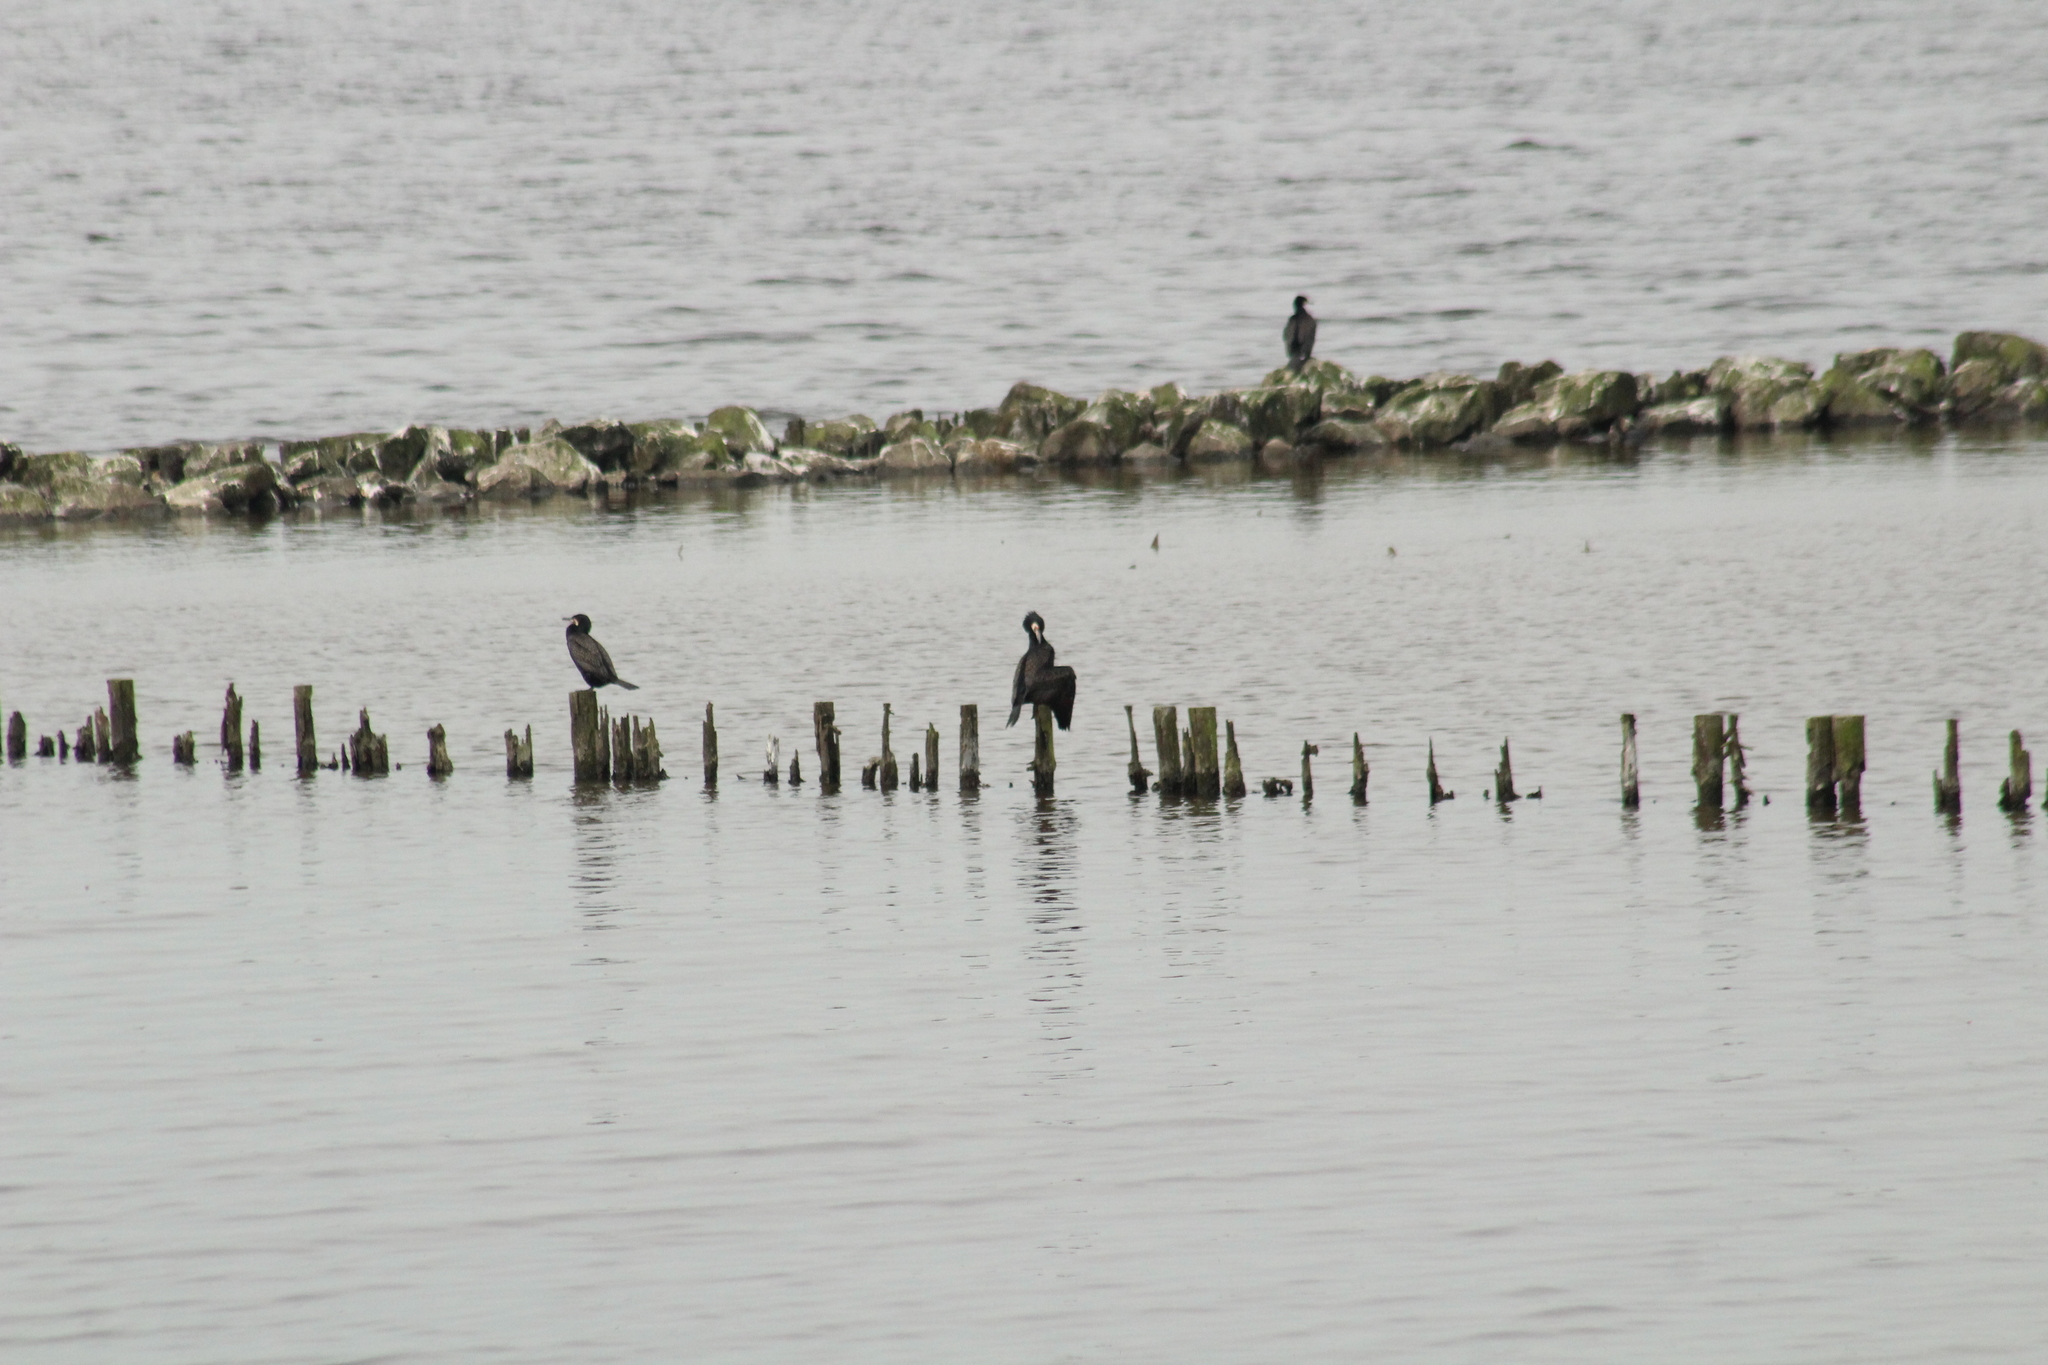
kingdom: Animalia
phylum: Chordata
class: Aves
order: Suliformes
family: Phalacrocoracidae
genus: Phalacrocorax
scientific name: Phalacrocorax carbo
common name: Great cormorant
